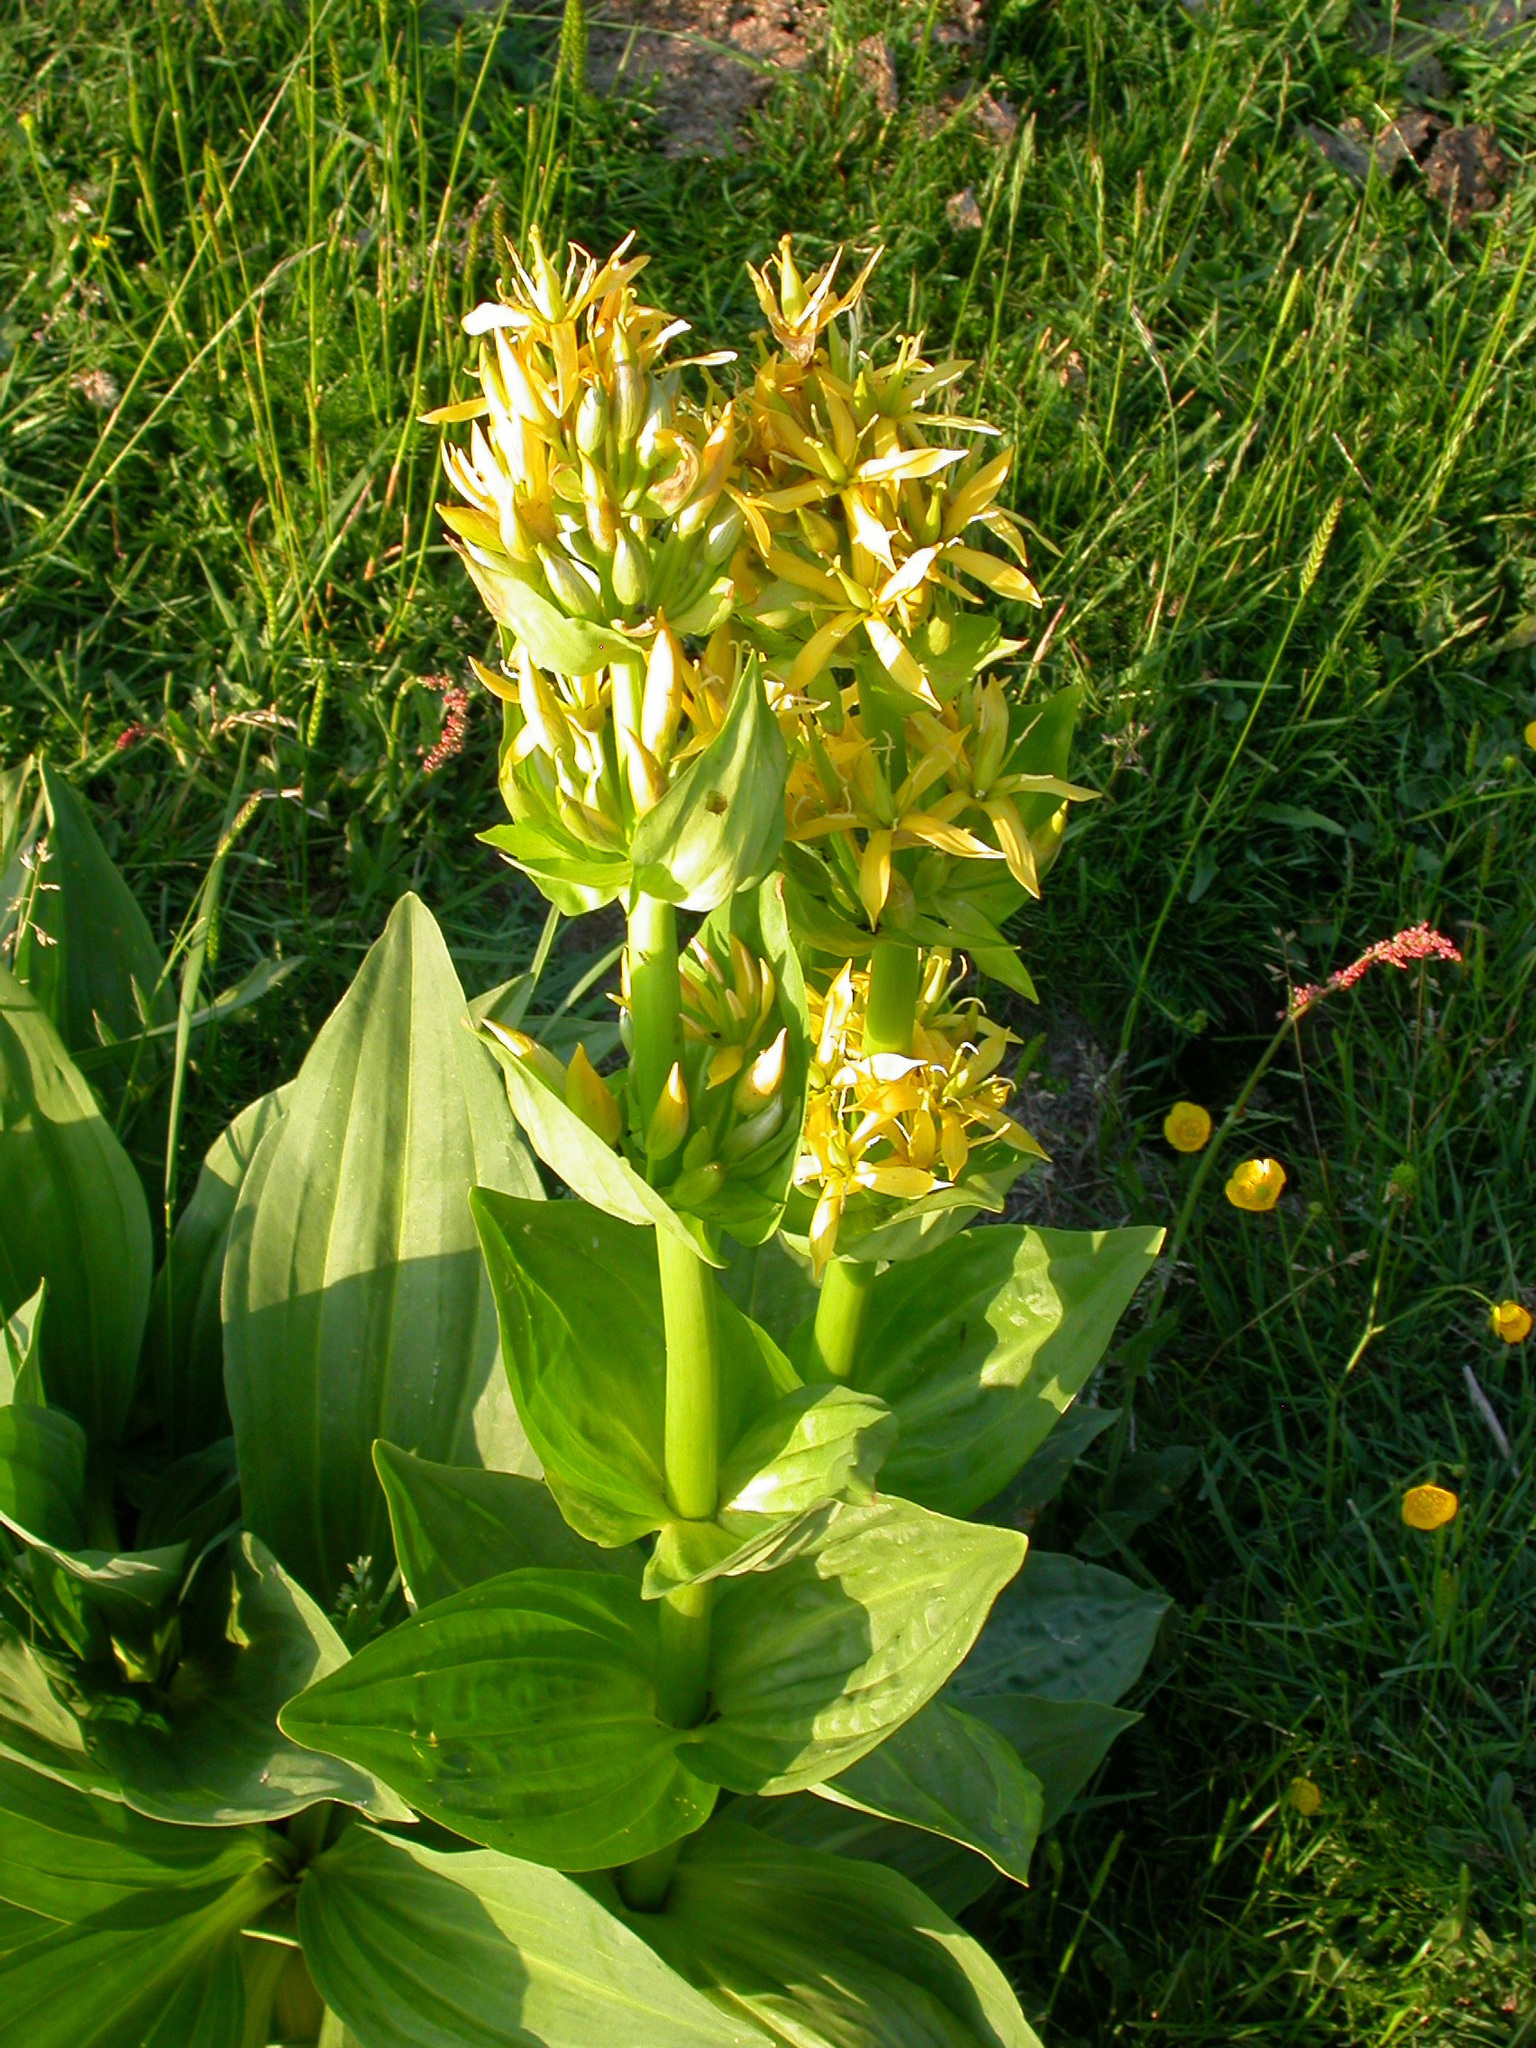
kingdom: Plantae
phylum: Tracheophyta
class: Magnoliopsida
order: Gentianales
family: Gentianaceae
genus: Gentiana
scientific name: Gentiana lutea
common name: Great yellow gentian
